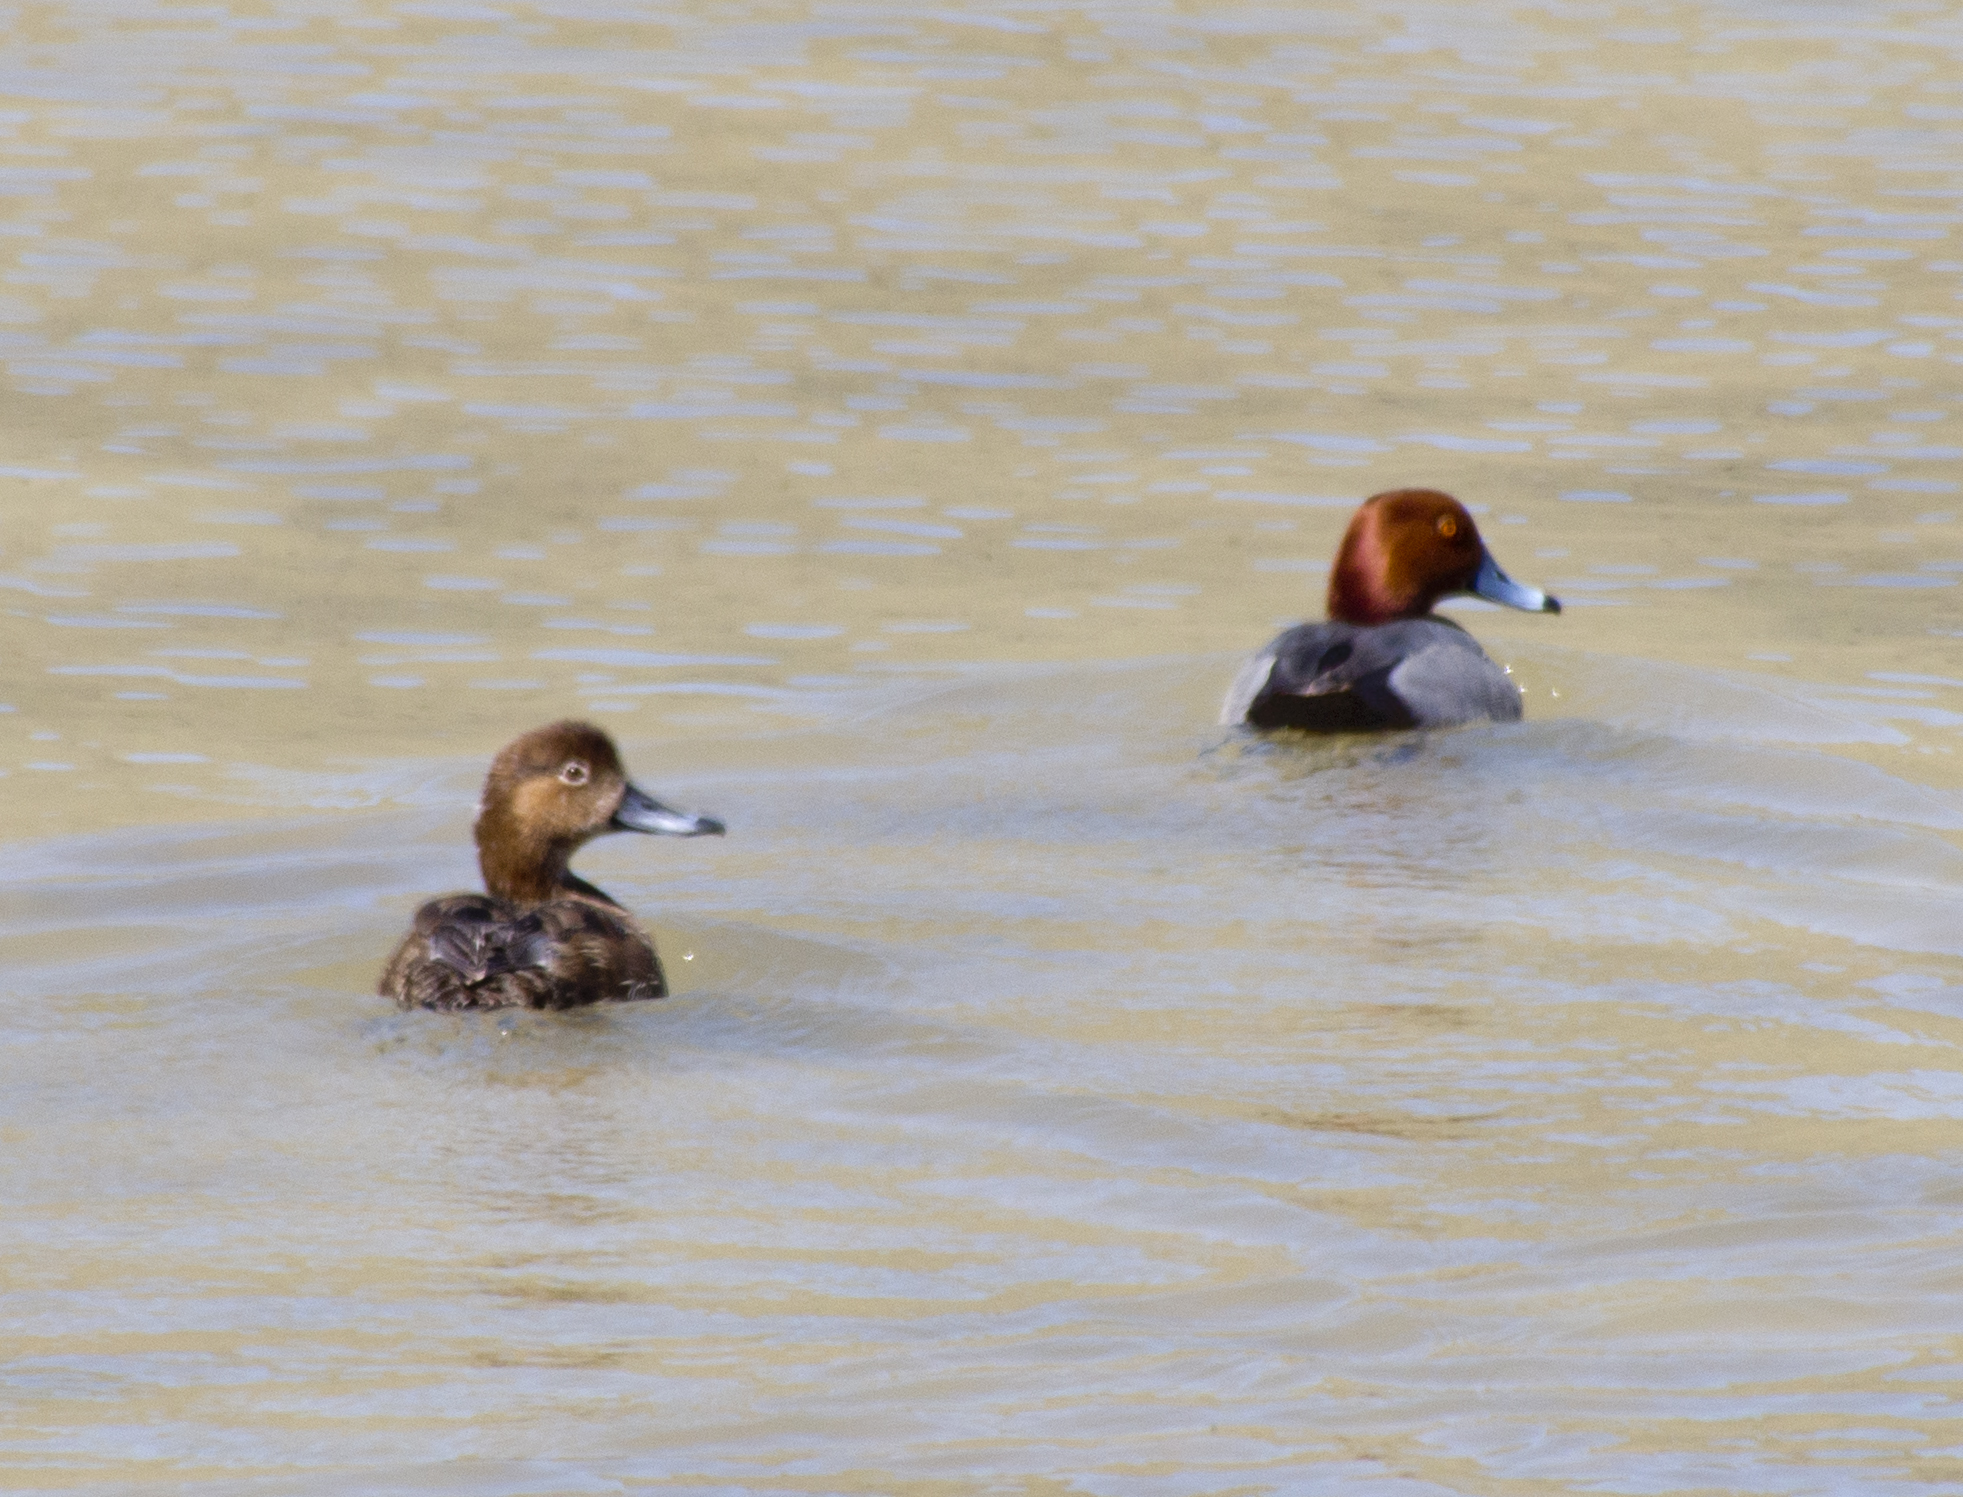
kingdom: Animalia
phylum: Chordata
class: Aves
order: Anseriformes
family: Anatidae
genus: Aythya
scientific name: Aythya americana
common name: Redhead
